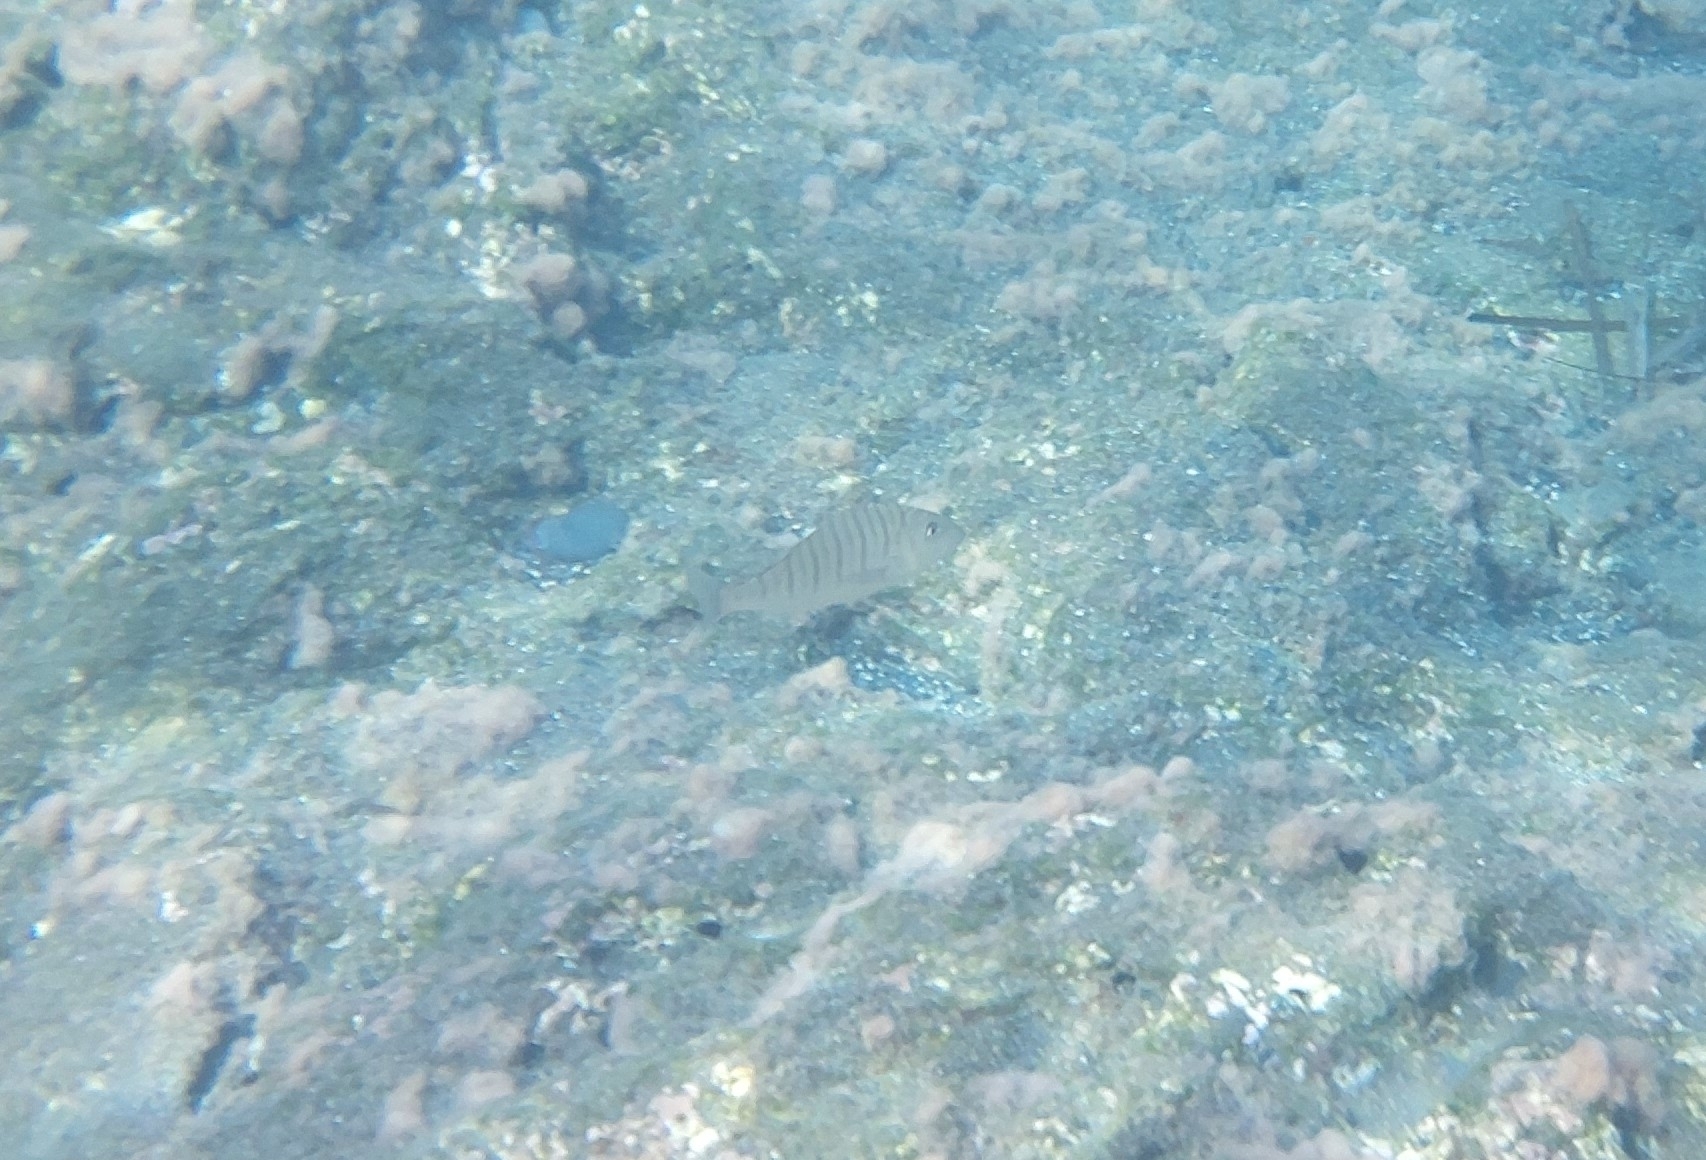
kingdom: Animalia
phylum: Chordata
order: Perciformes
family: Sparidae
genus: Lithognathus
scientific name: Lithognathus mormyrus
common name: Sand steenbras
